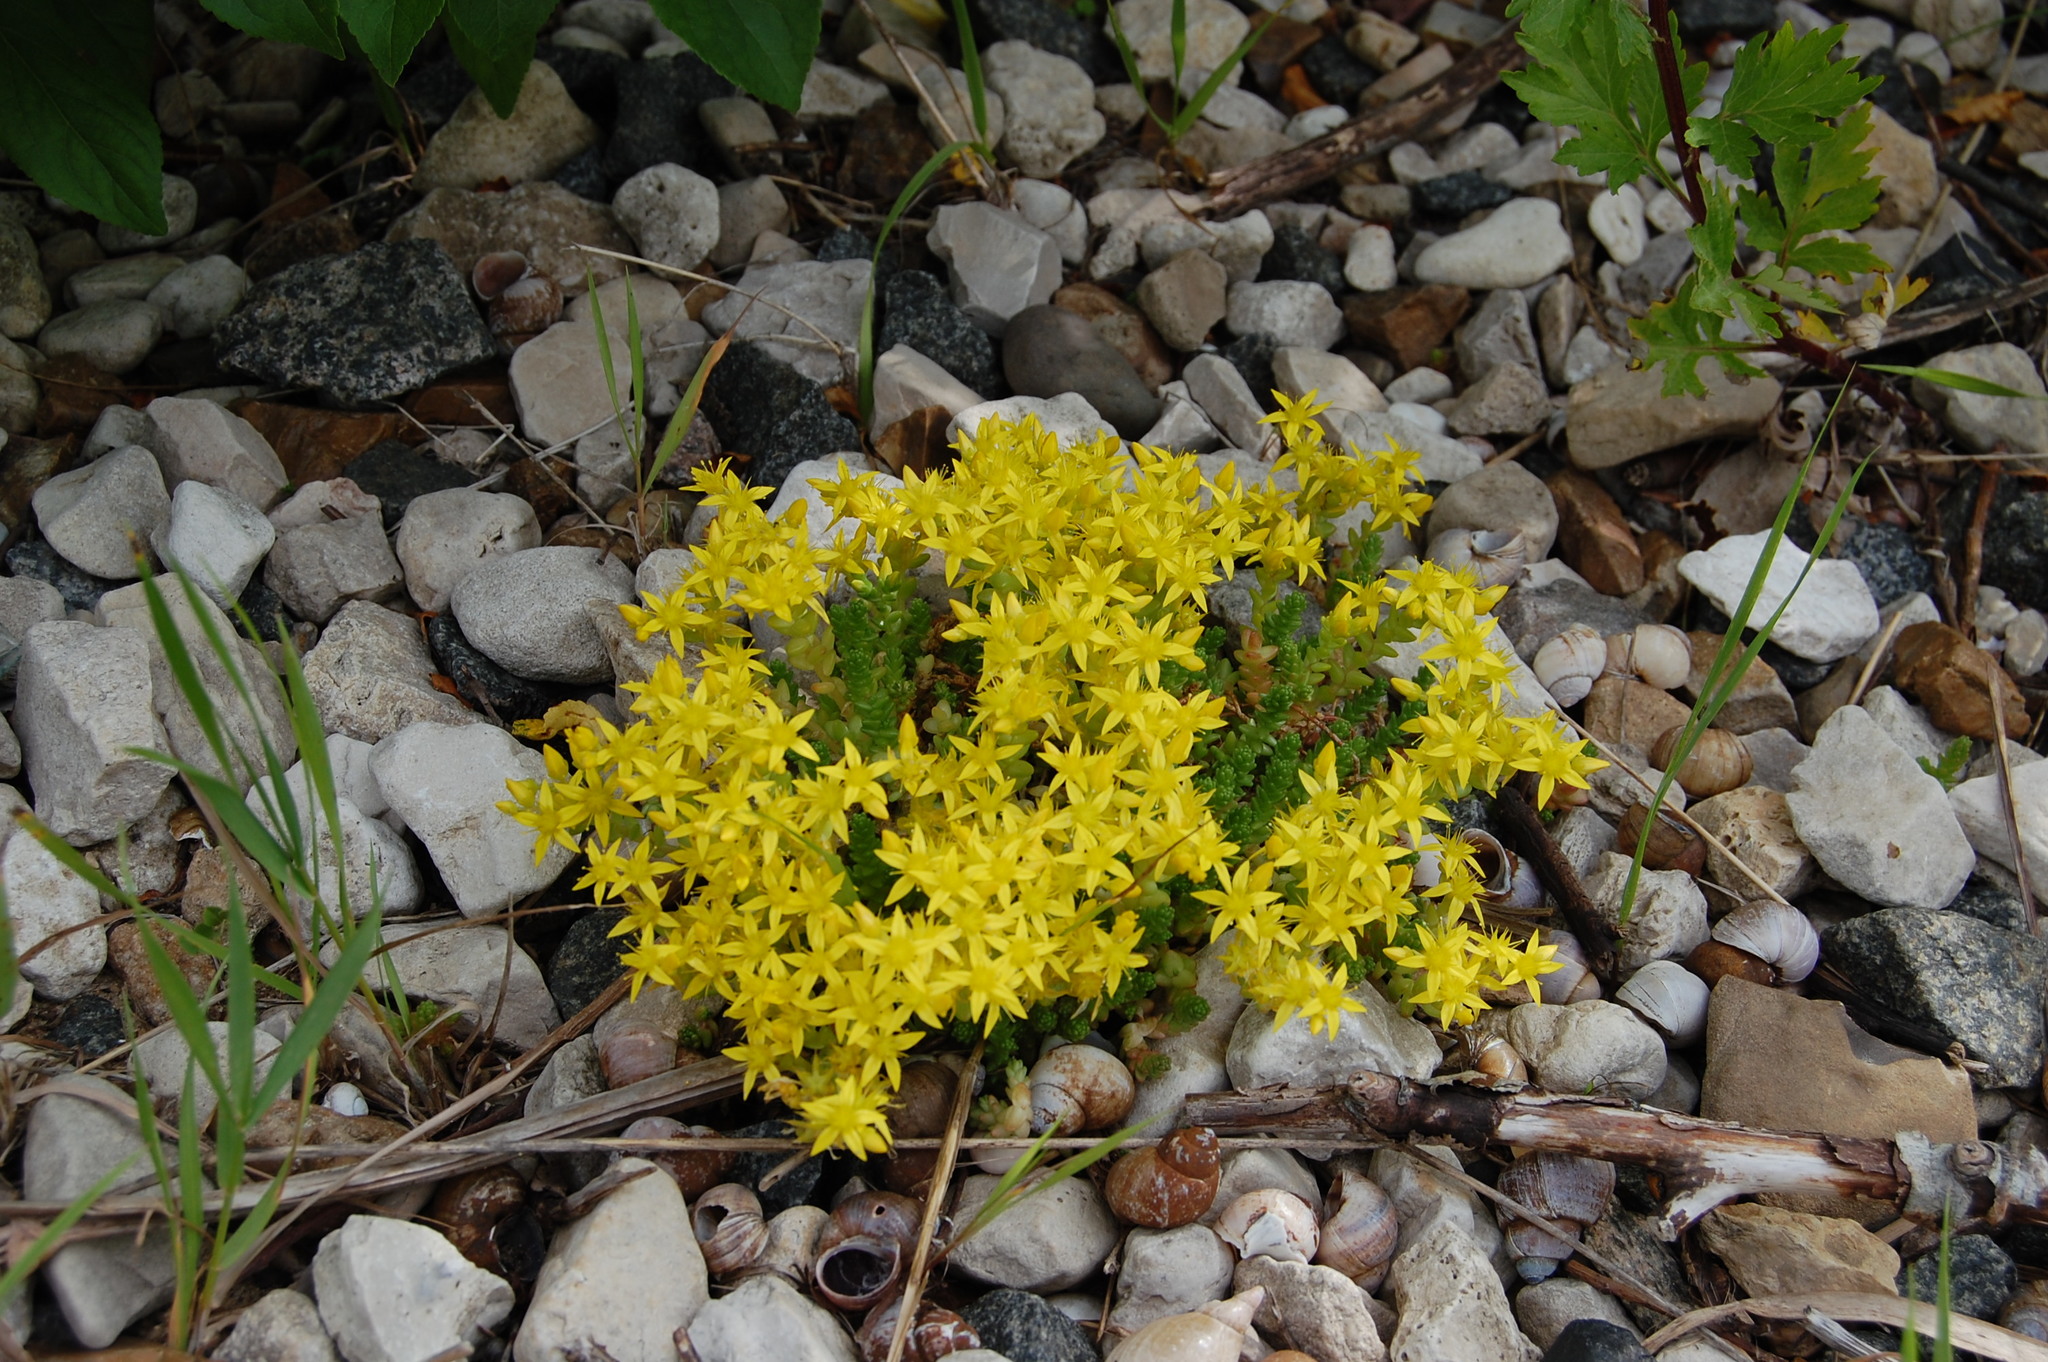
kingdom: Plantae
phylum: Tracheophyta
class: Magnoliopsida
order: Saxifragales
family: Crassulaceae
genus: Sedum
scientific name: Sedum acre
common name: Biting stonecrop
